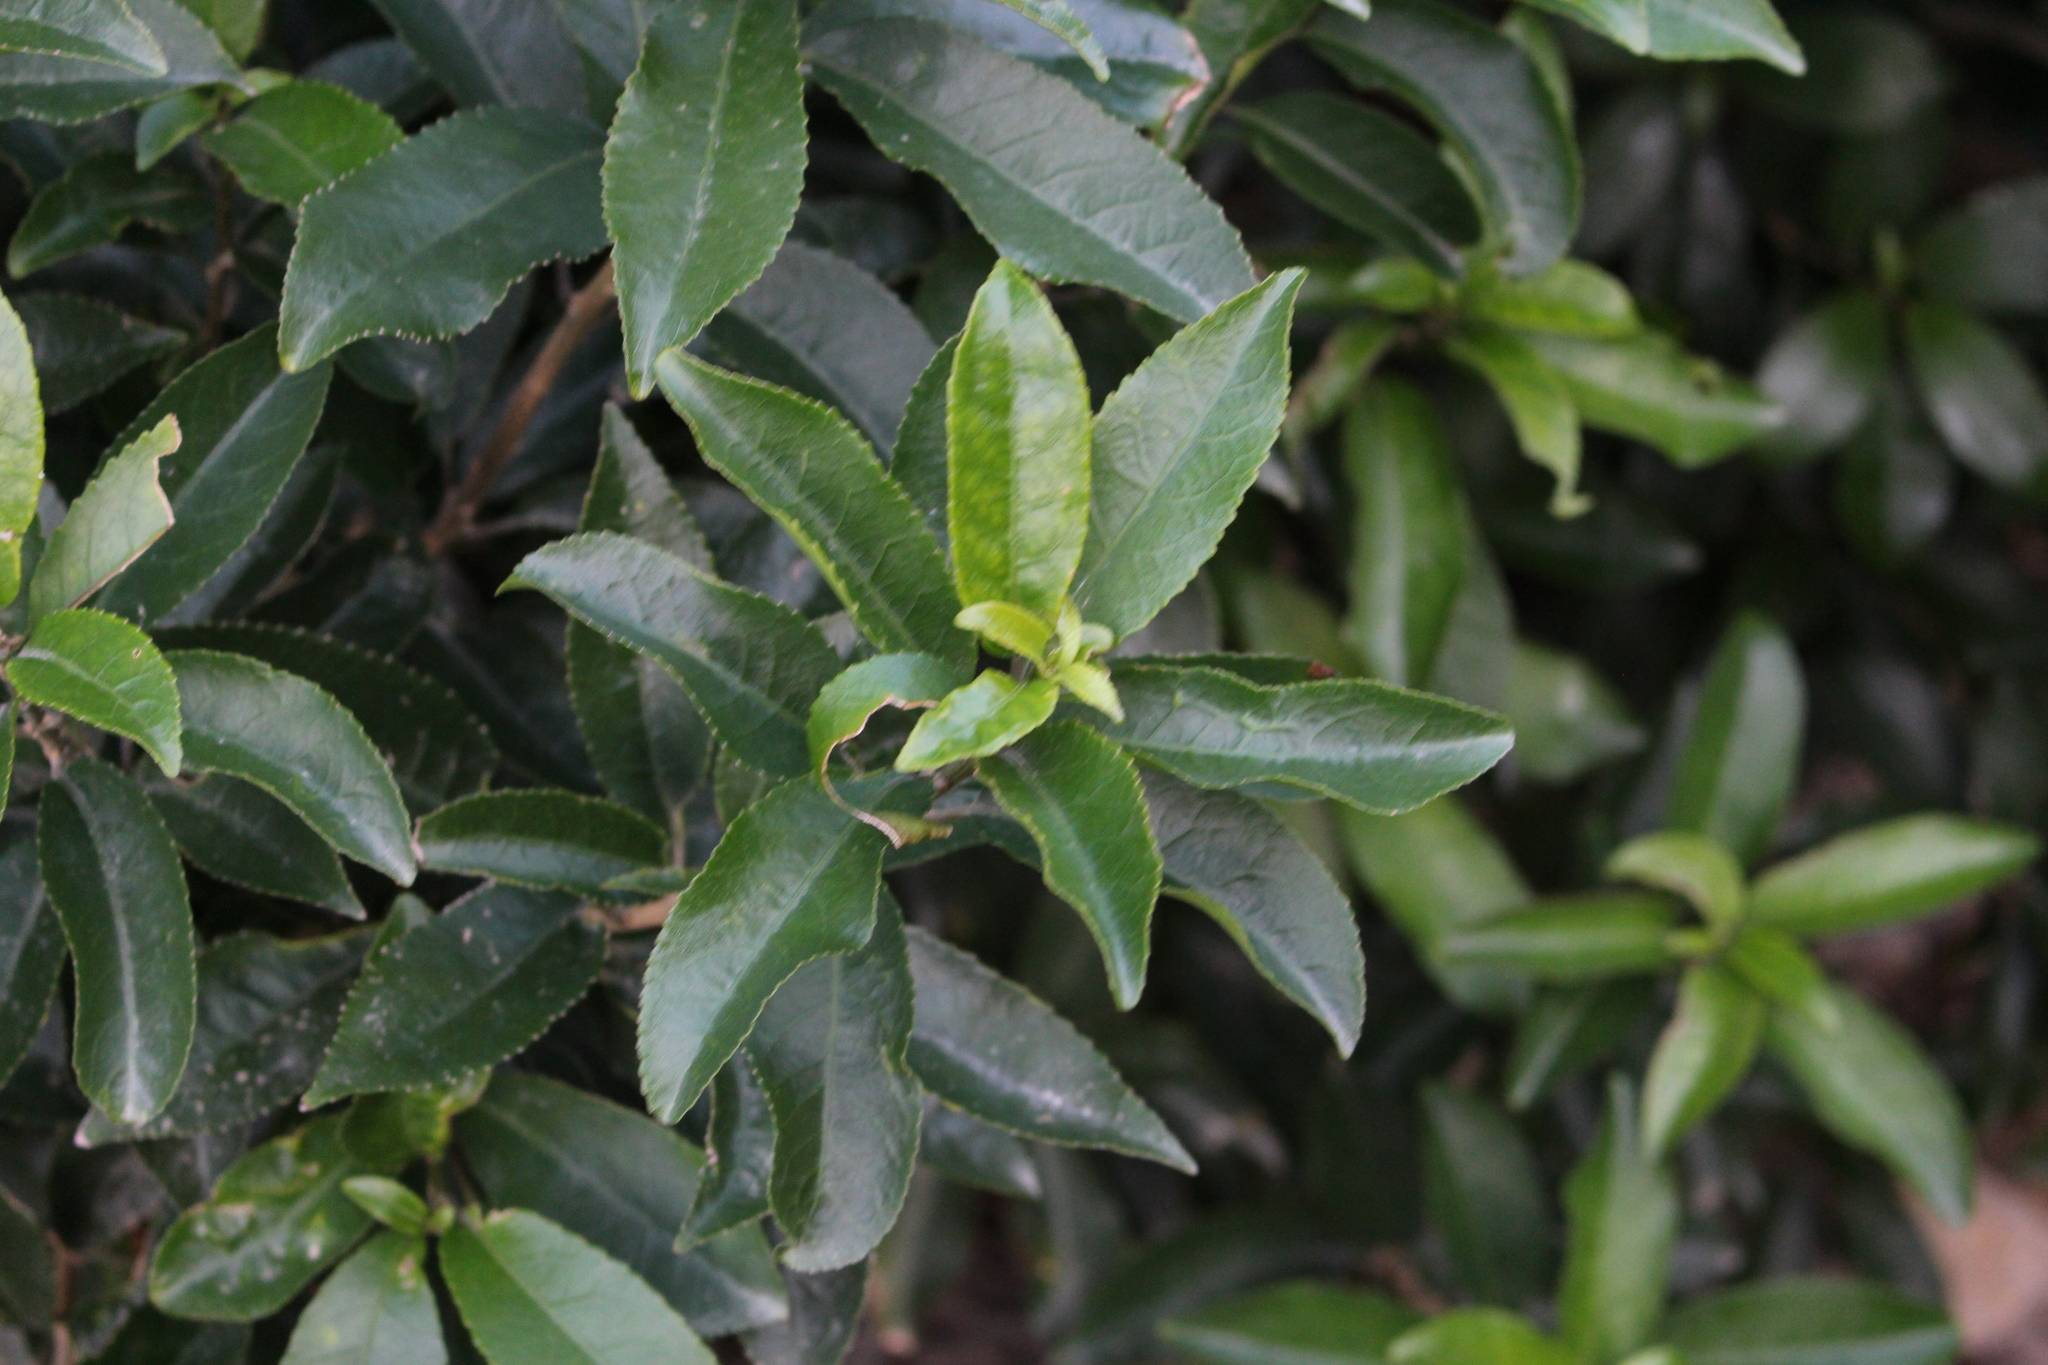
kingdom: Plantae
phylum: Tracheophyta
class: Magnoliopsida
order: Malpighiales
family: Violaceae
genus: Melicytus
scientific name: Melicytus ramiflorus
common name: Mahoe
